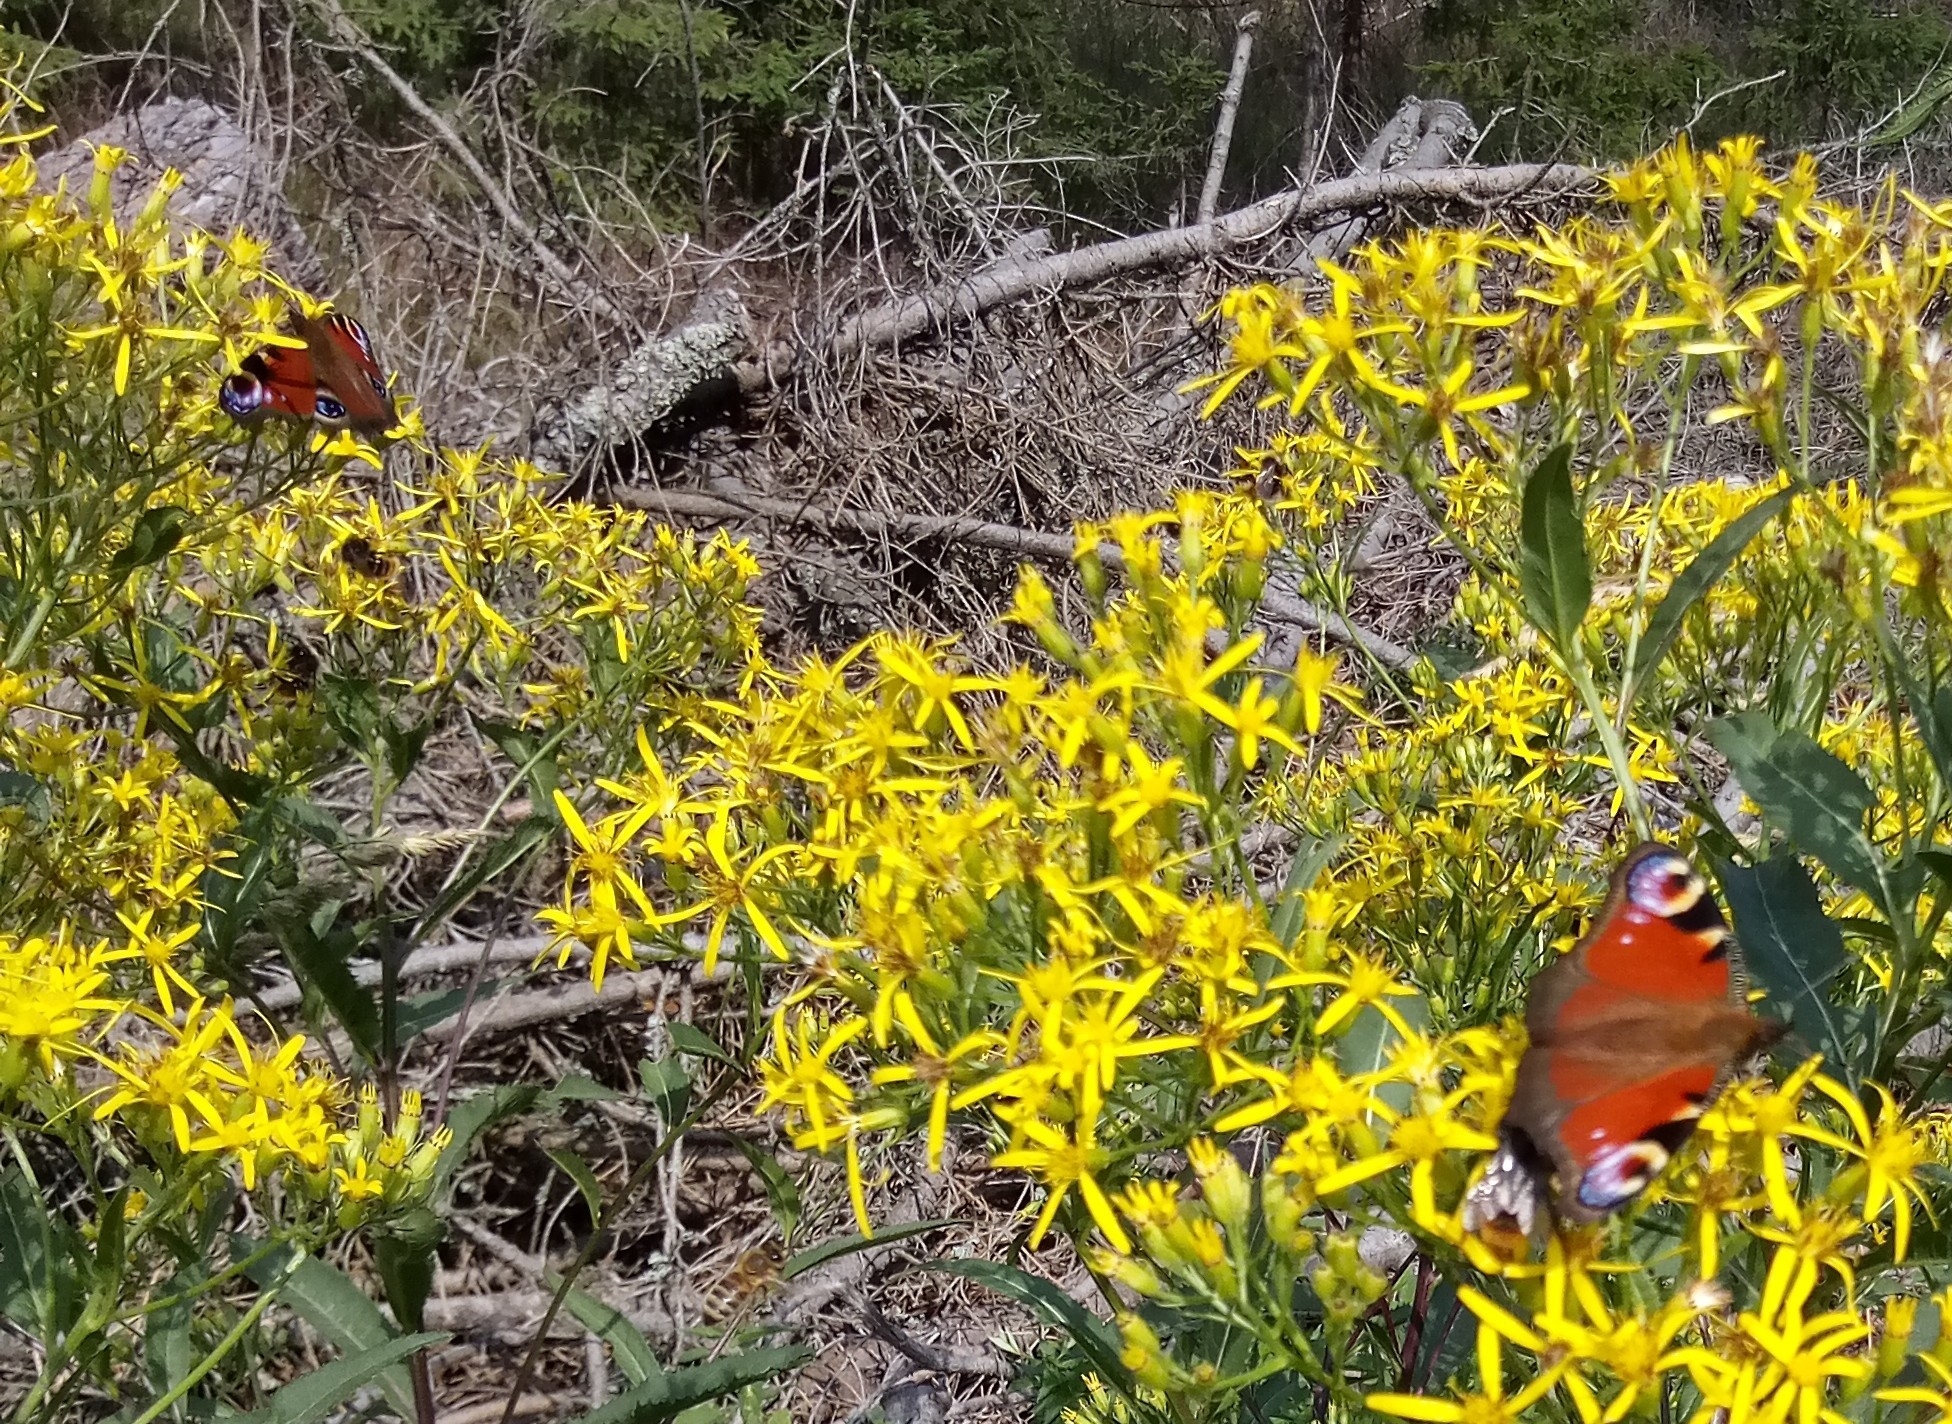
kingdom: Animalia
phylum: Arthropoda
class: Insecta
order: Lepidoptera
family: Nymphalidae
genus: Aglais
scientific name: Aglais io
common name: Peacock
